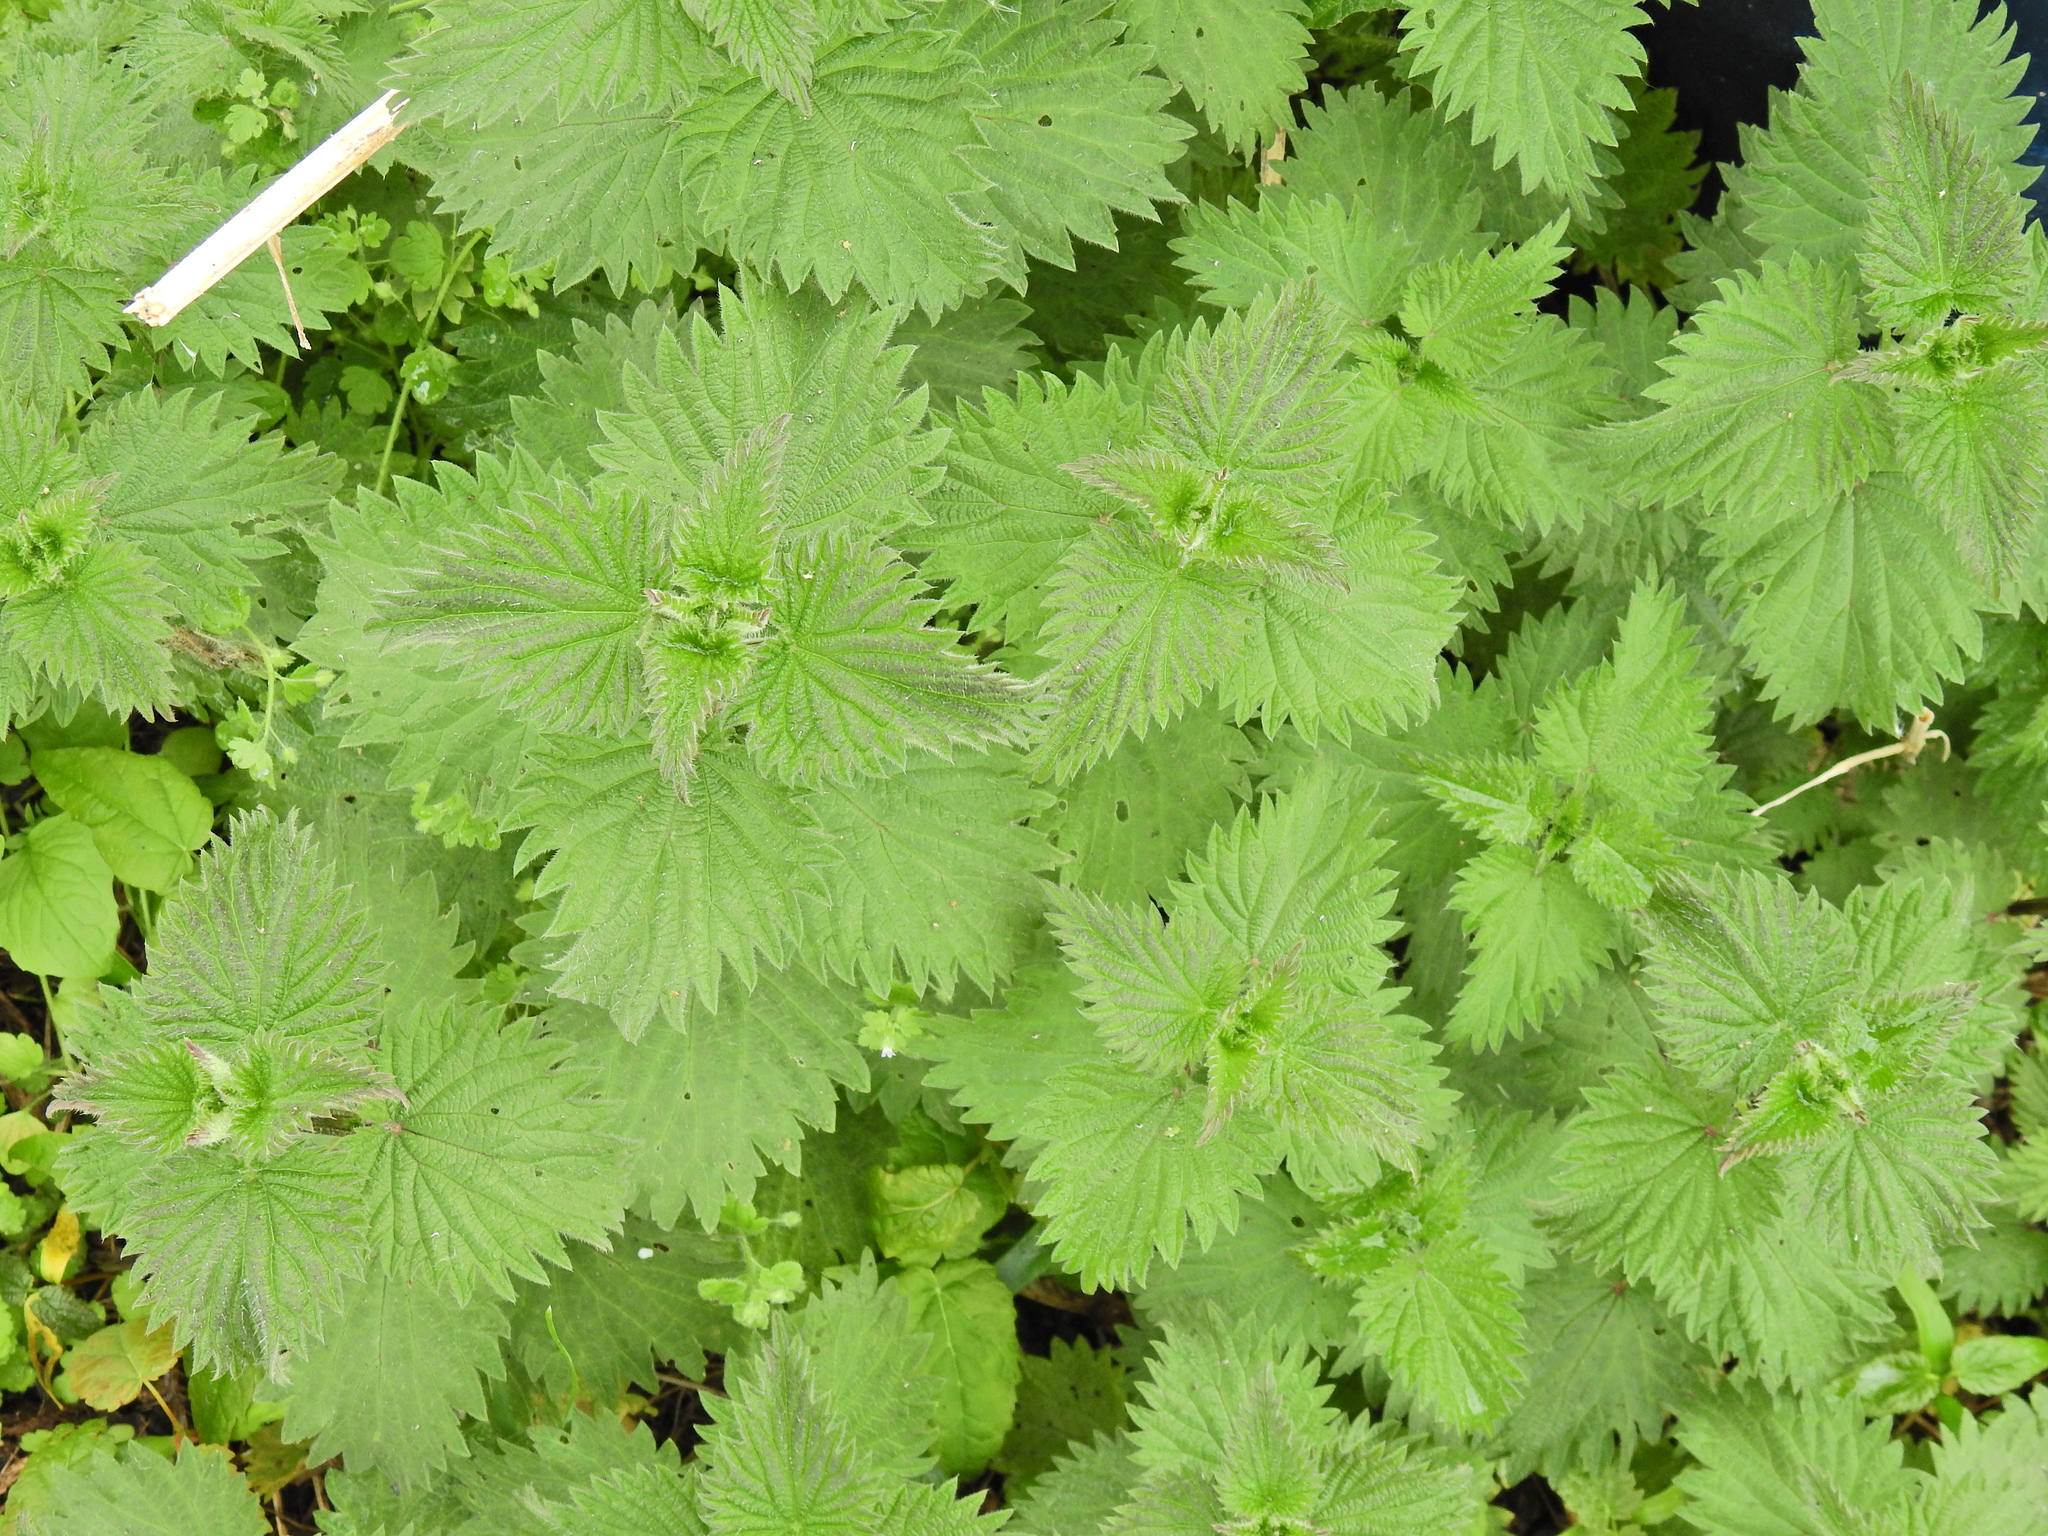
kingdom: Plantae
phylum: Tracheophyta
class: Magnoliopsida
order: Rosales
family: Urticaceae
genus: Urtica
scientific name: Urtica dioica
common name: Common nettle
